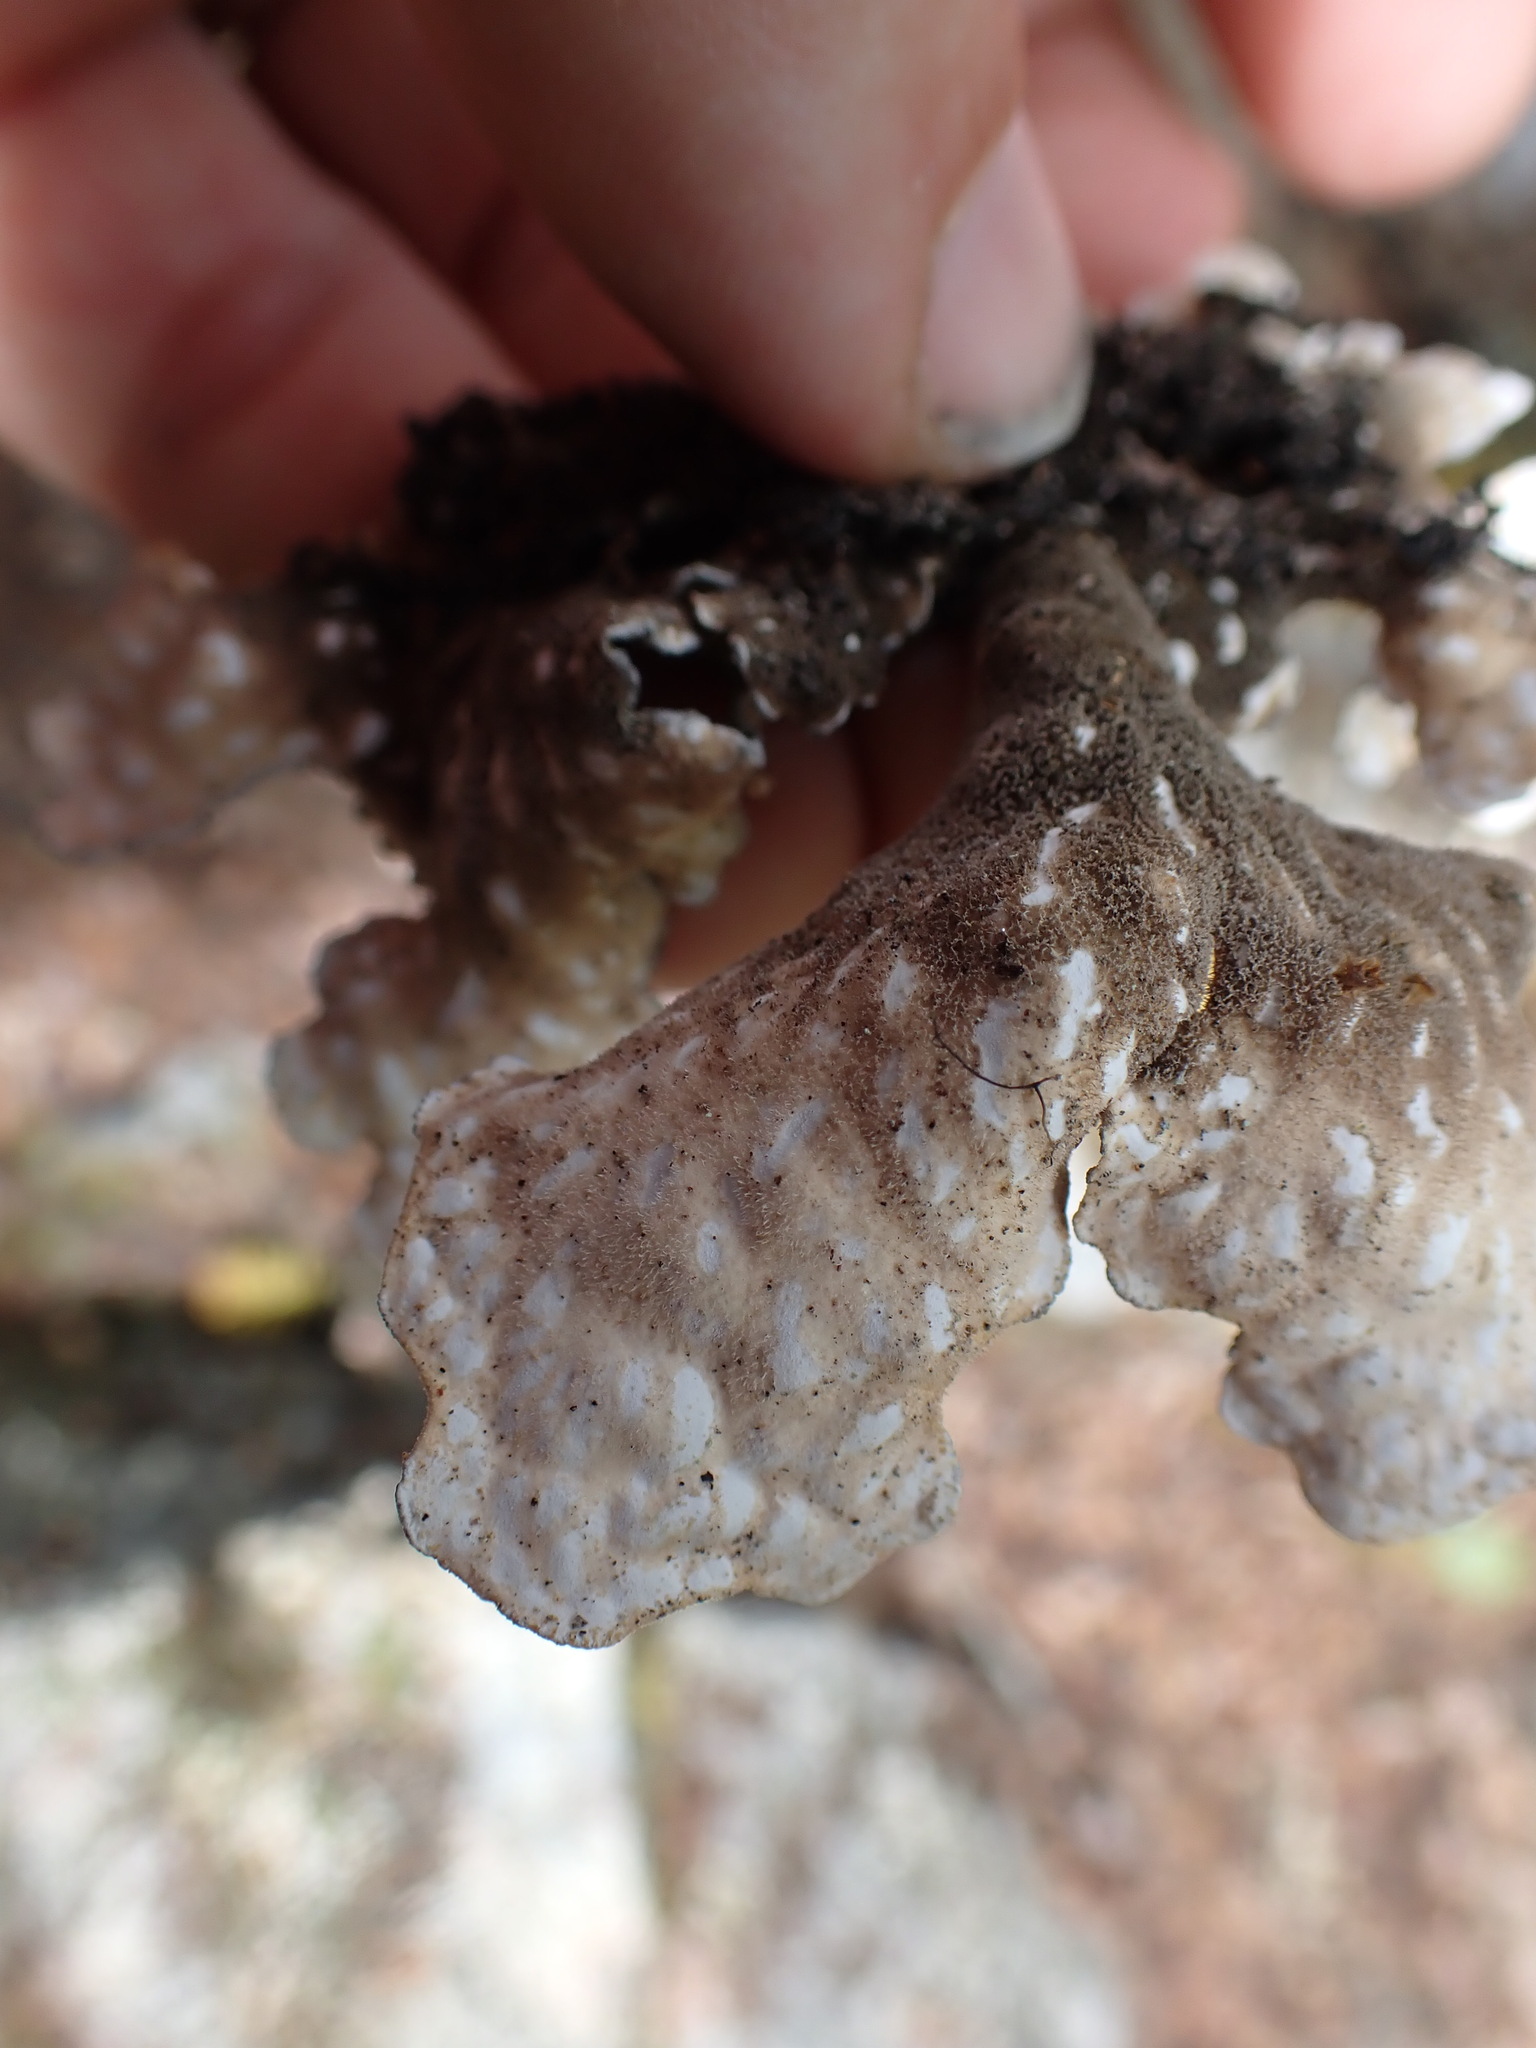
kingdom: Fungi
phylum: Ascomycota
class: Lecanoromycetes
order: Peltigerales
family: Lobariaceae
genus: Lobarina
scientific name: Lobarina scrobiculata
